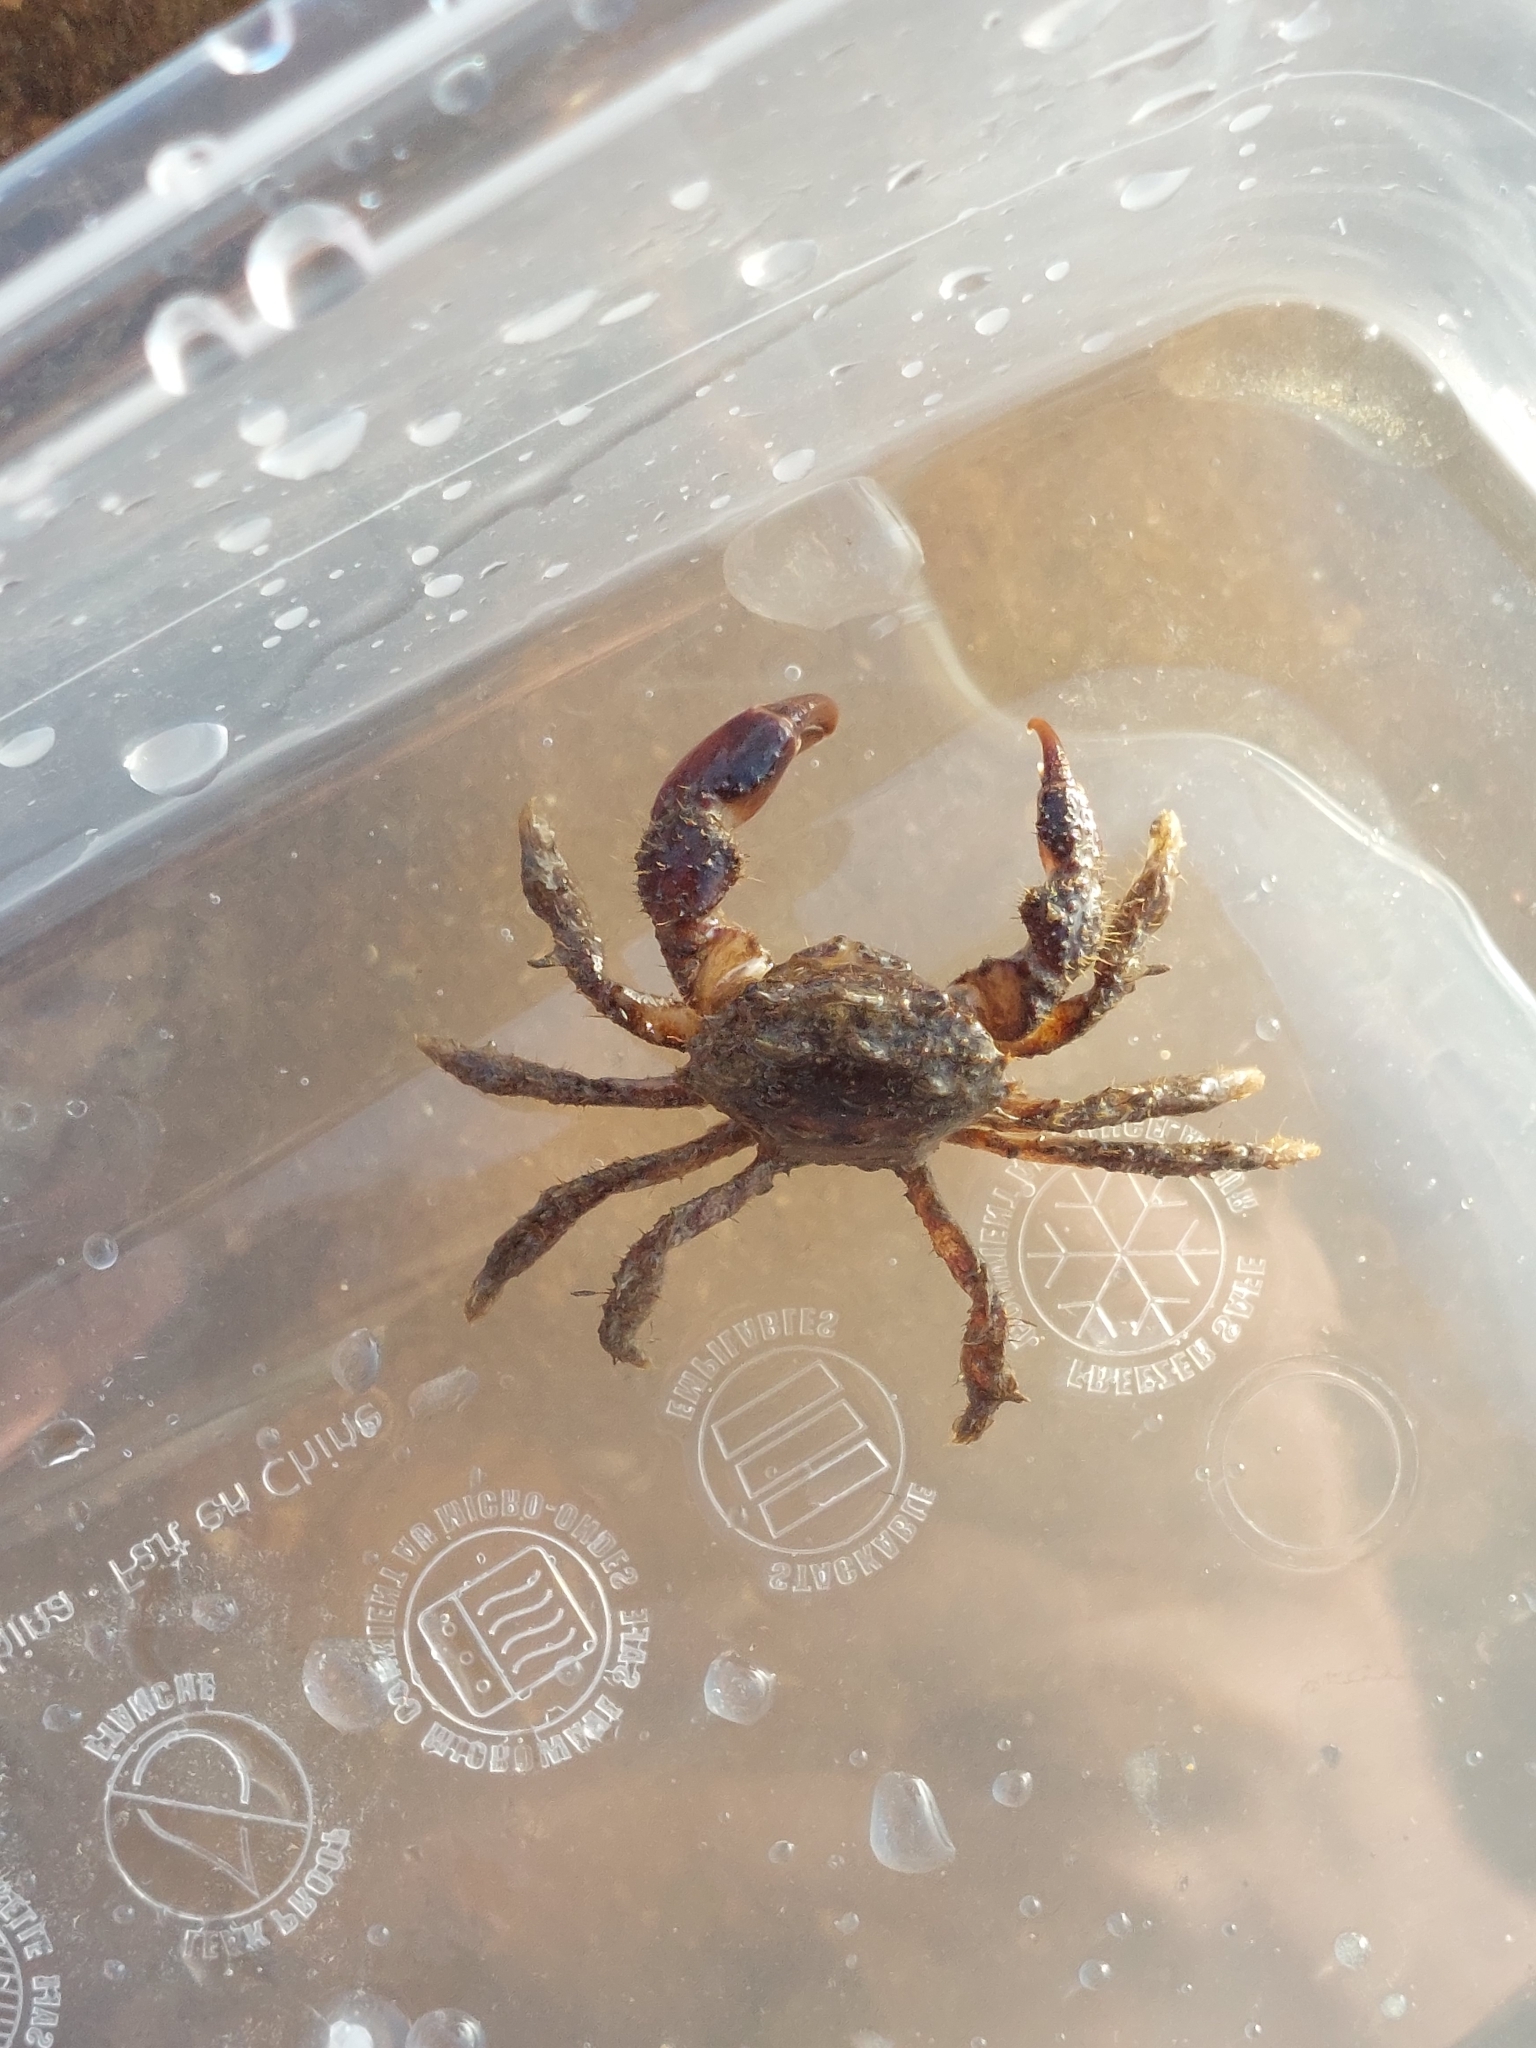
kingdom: Animalia
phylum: Arthropoda
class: Malacostraca
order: Decapoda
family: Pilumnidae
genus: Pilumnus
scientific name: Pilumnus hirtellus
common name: Hairy crab
